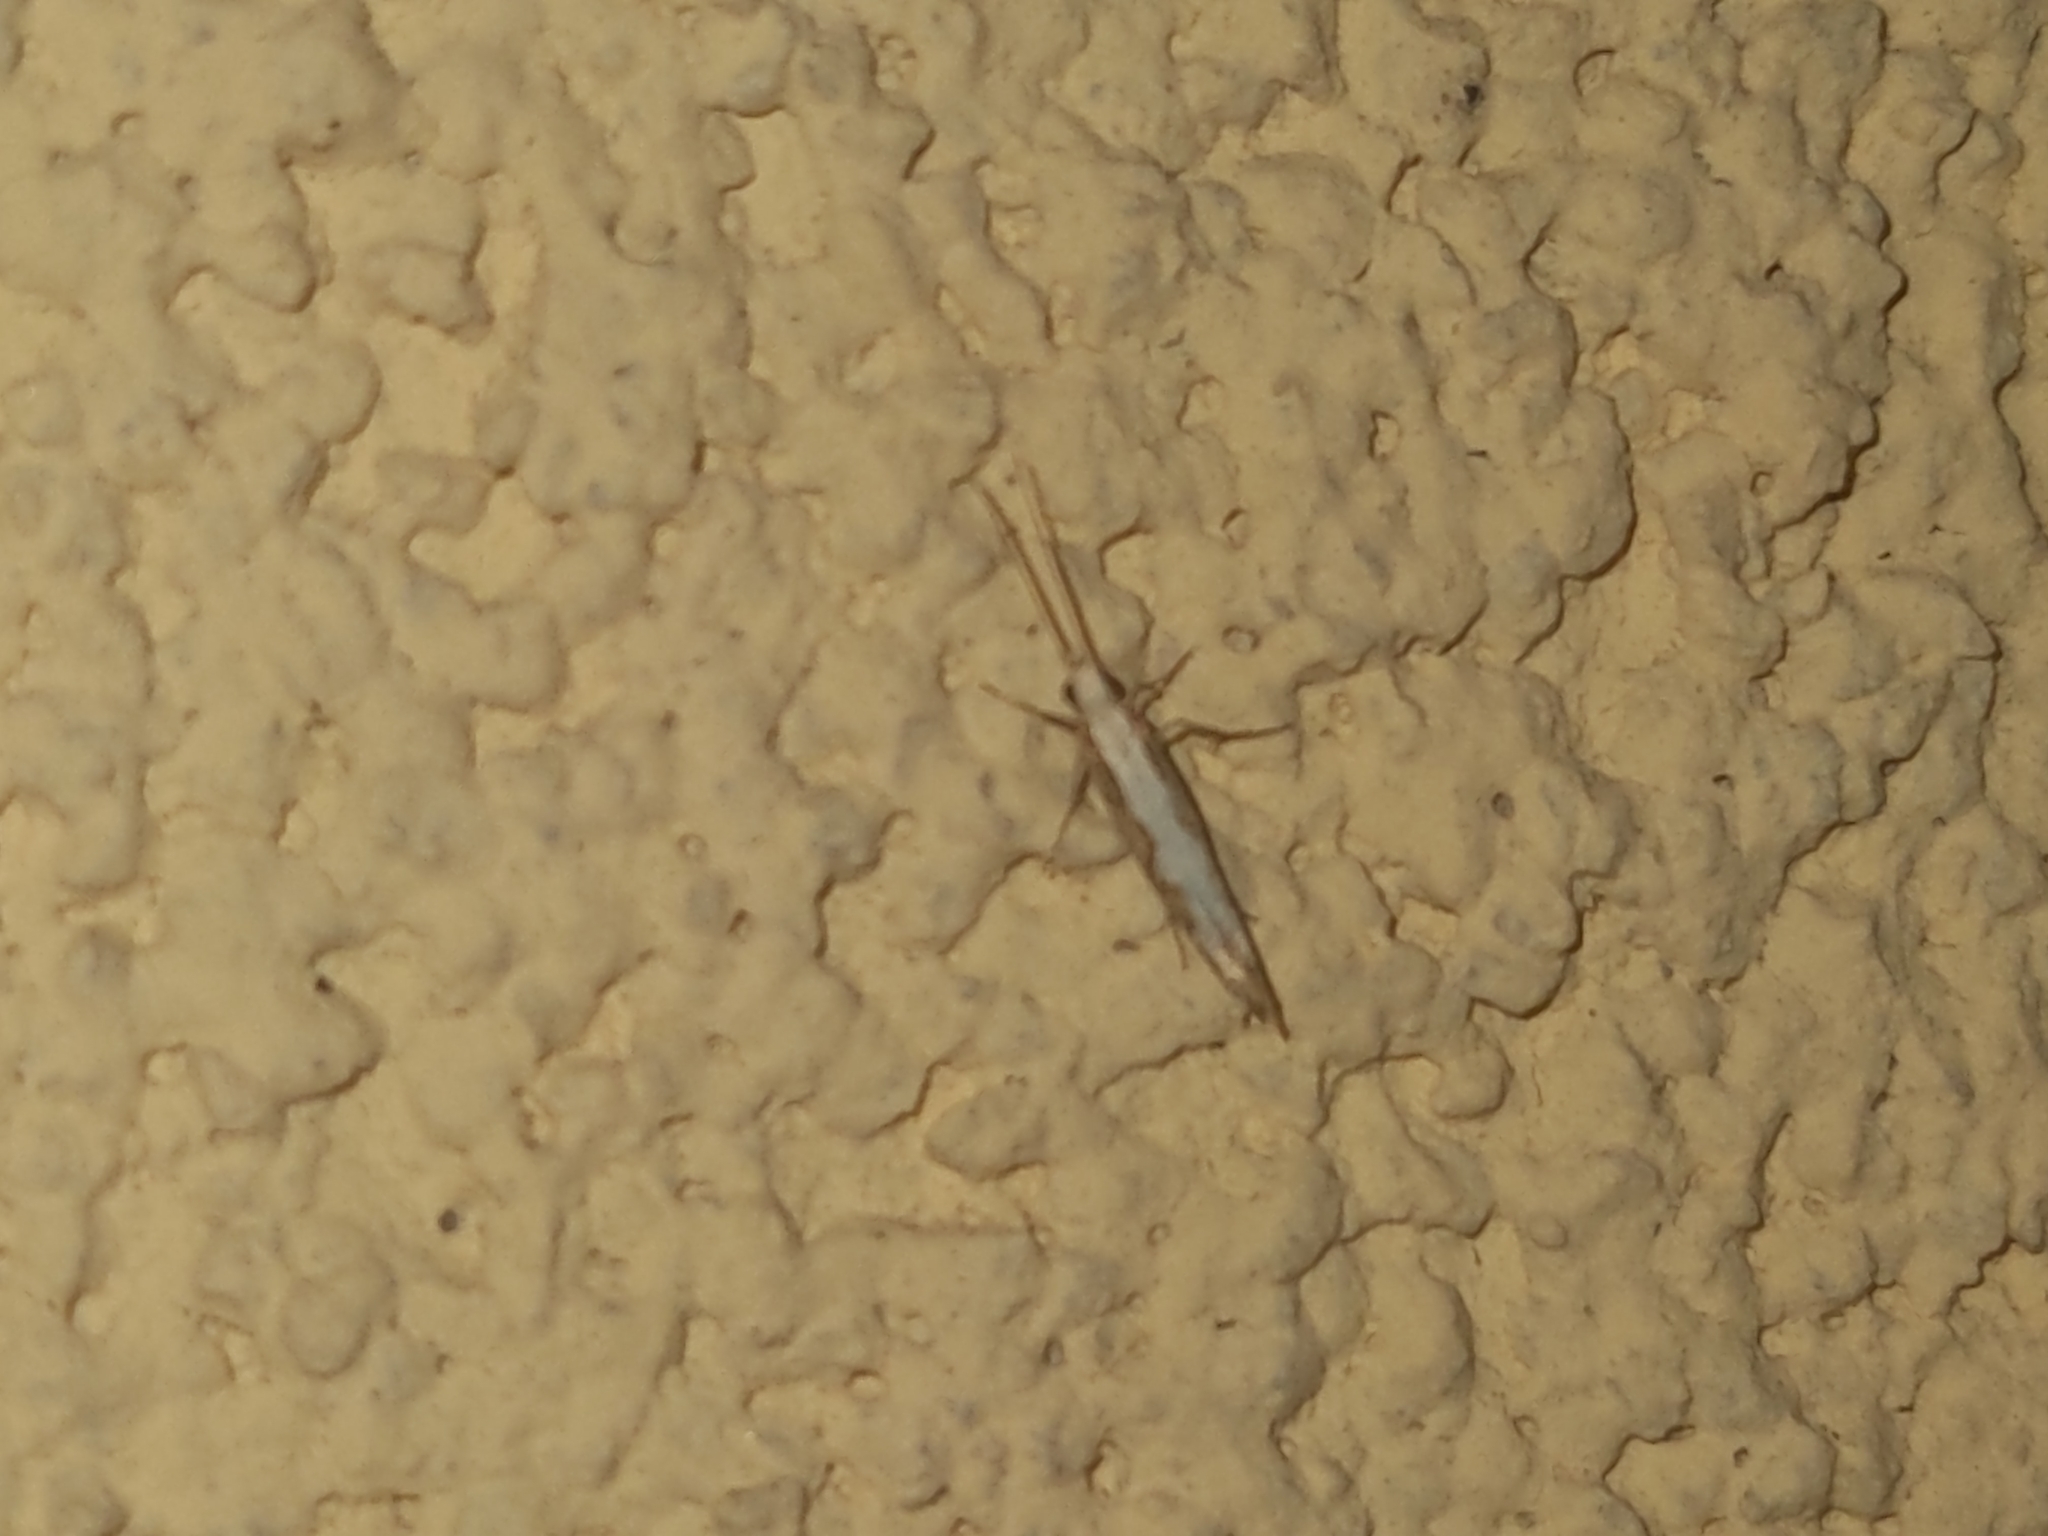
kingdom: Animalia
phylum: Arthropoda
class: Insecta
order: Lepidoptera
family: Plutellidae
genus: Plutella
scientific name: Plutella xylostella
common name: Diamond-back moth
